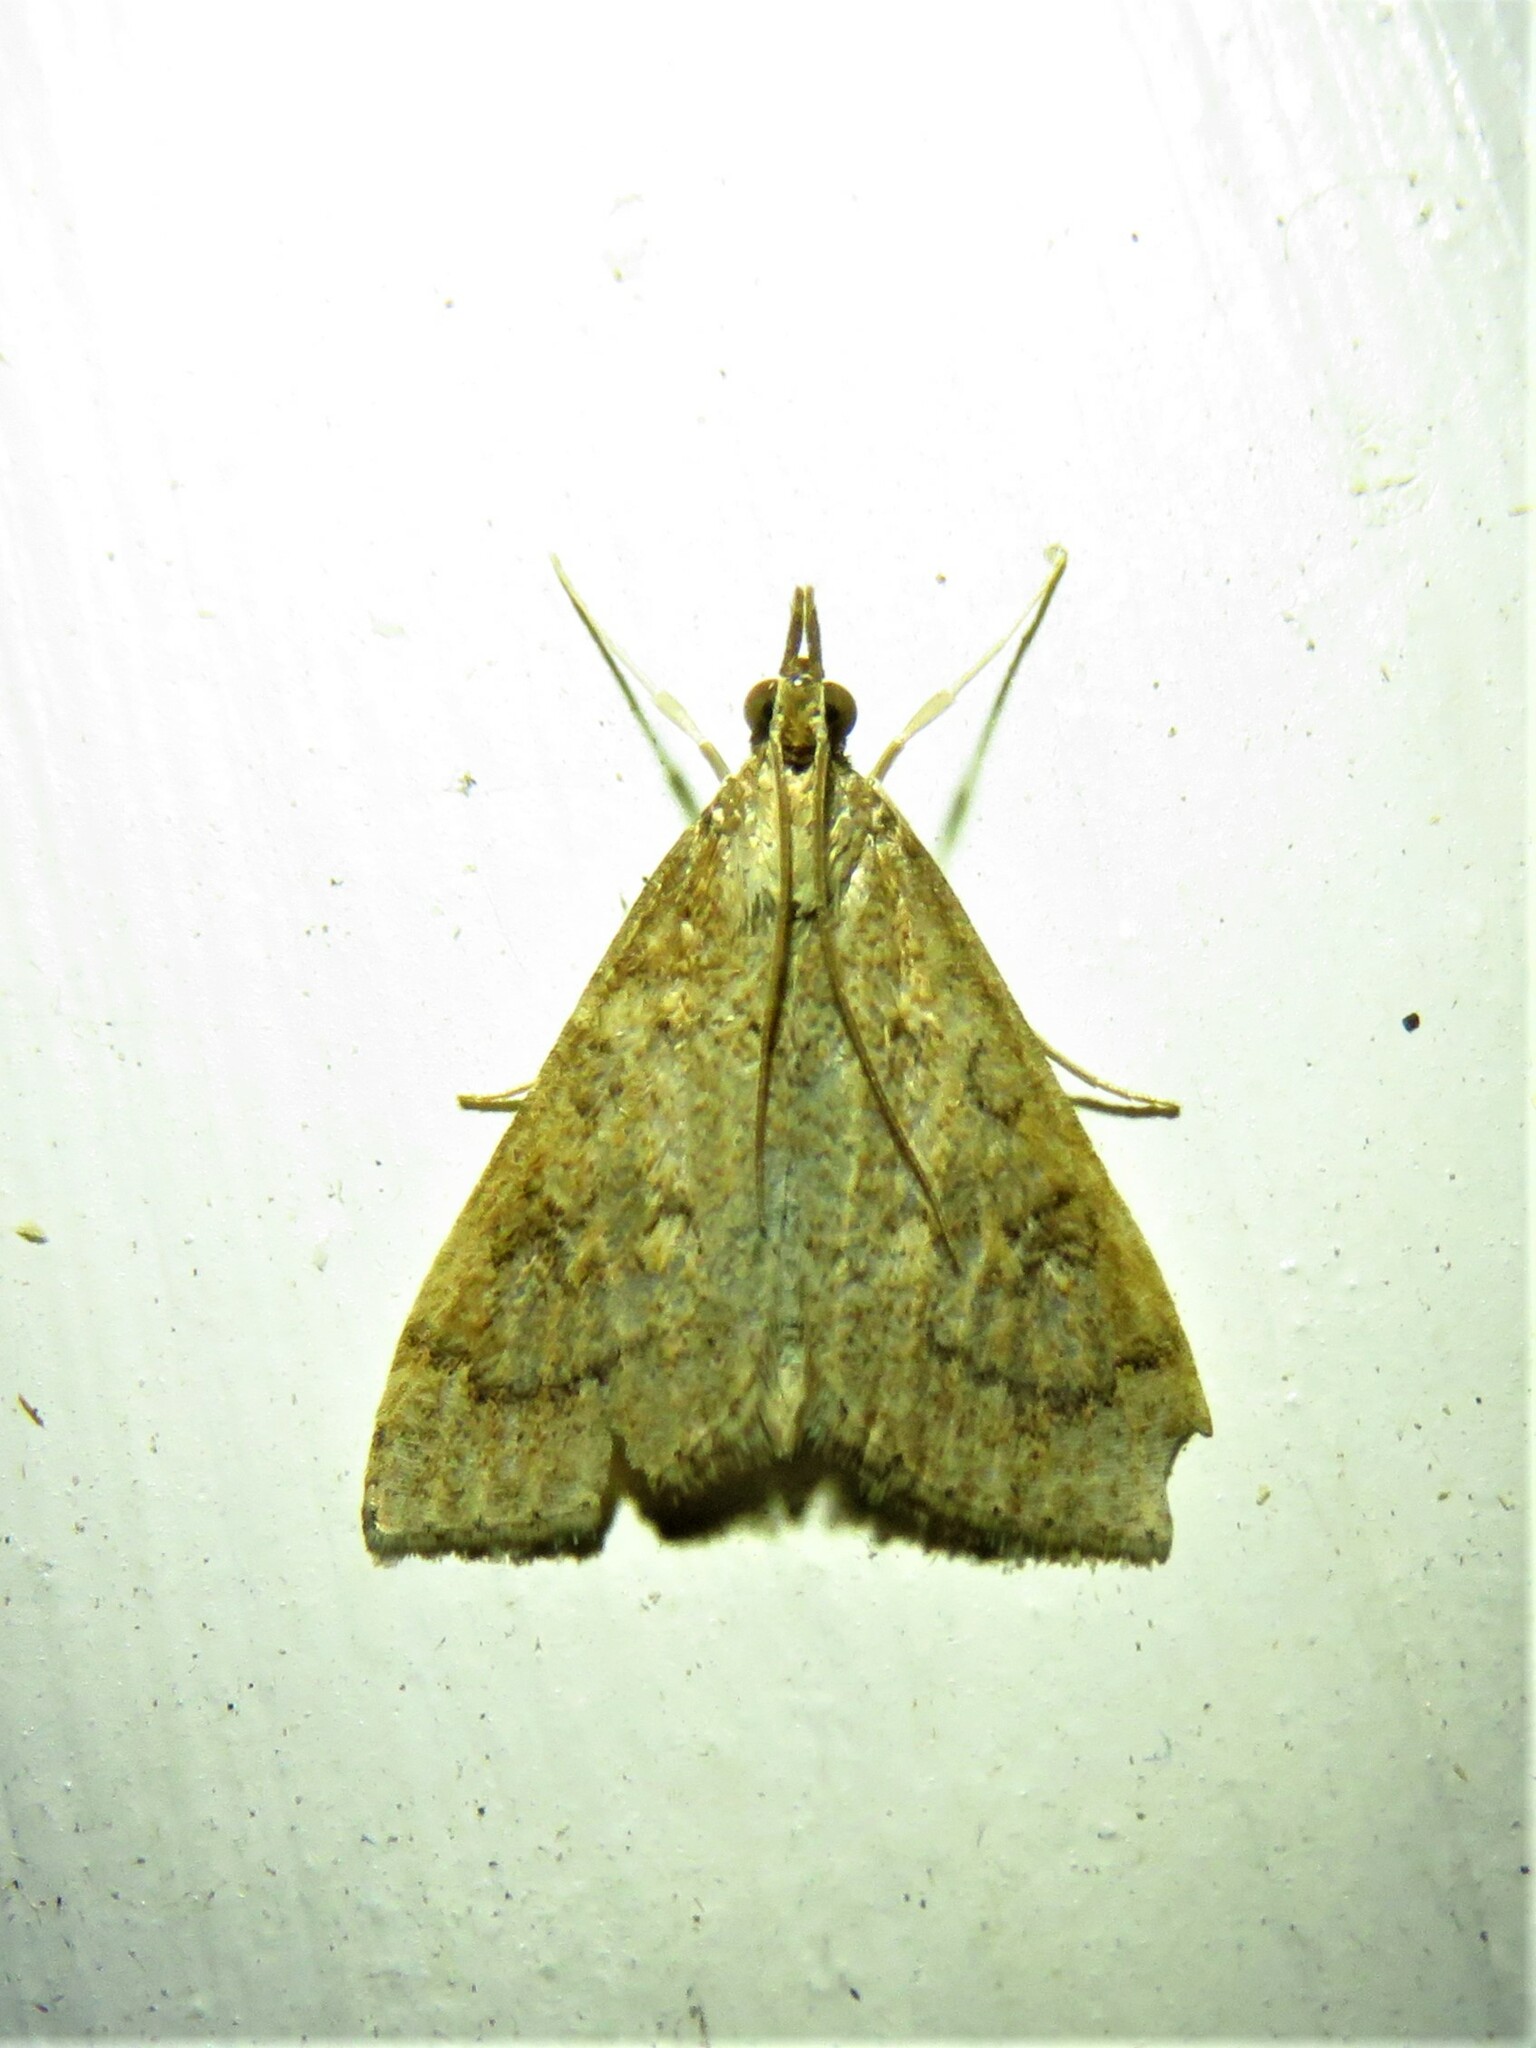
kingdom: Animalia
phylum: Arthropoda
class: Insecta
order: Lepidoptera
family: Crambidae
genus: Udea
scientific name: Udea rubigalis
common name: Celery leaftier moth
